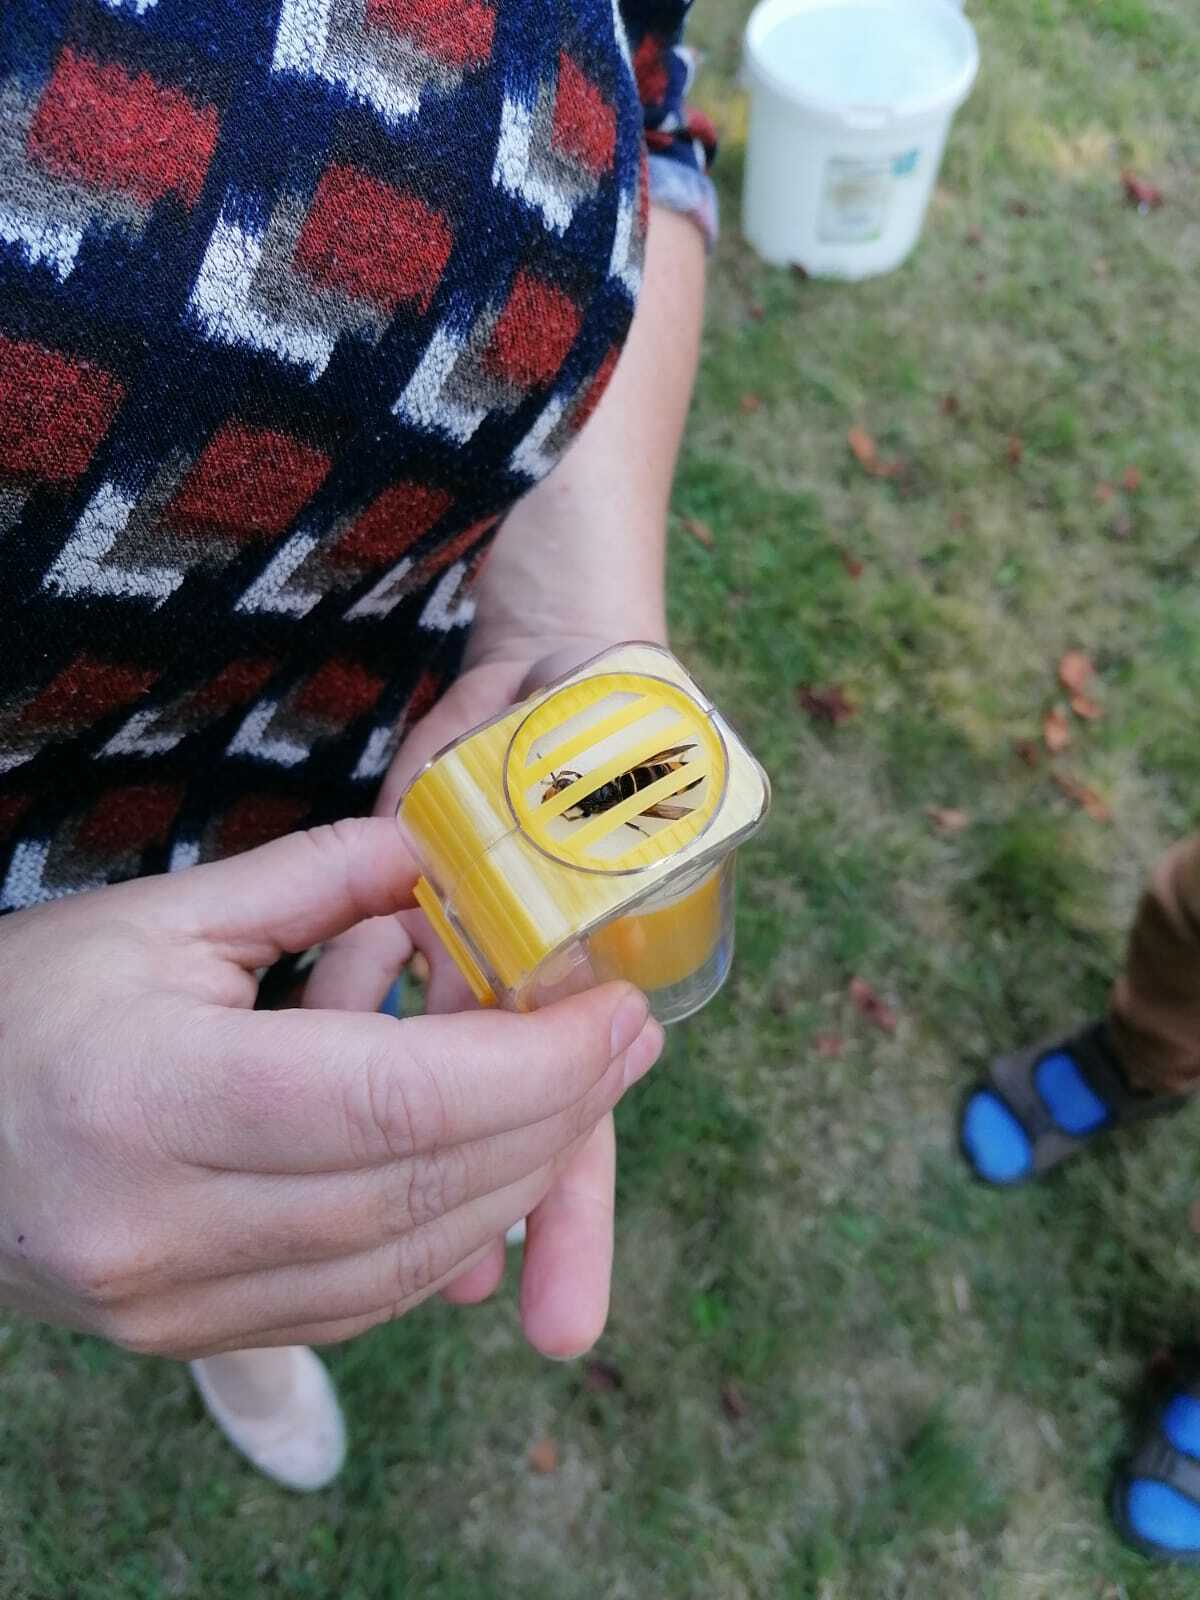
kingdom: Animalia
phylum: Arthropoda
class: Insecta
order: Hymenoptera
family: Vespidae
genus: Vespa
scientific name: Vespa velutina
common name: Asian hornet
